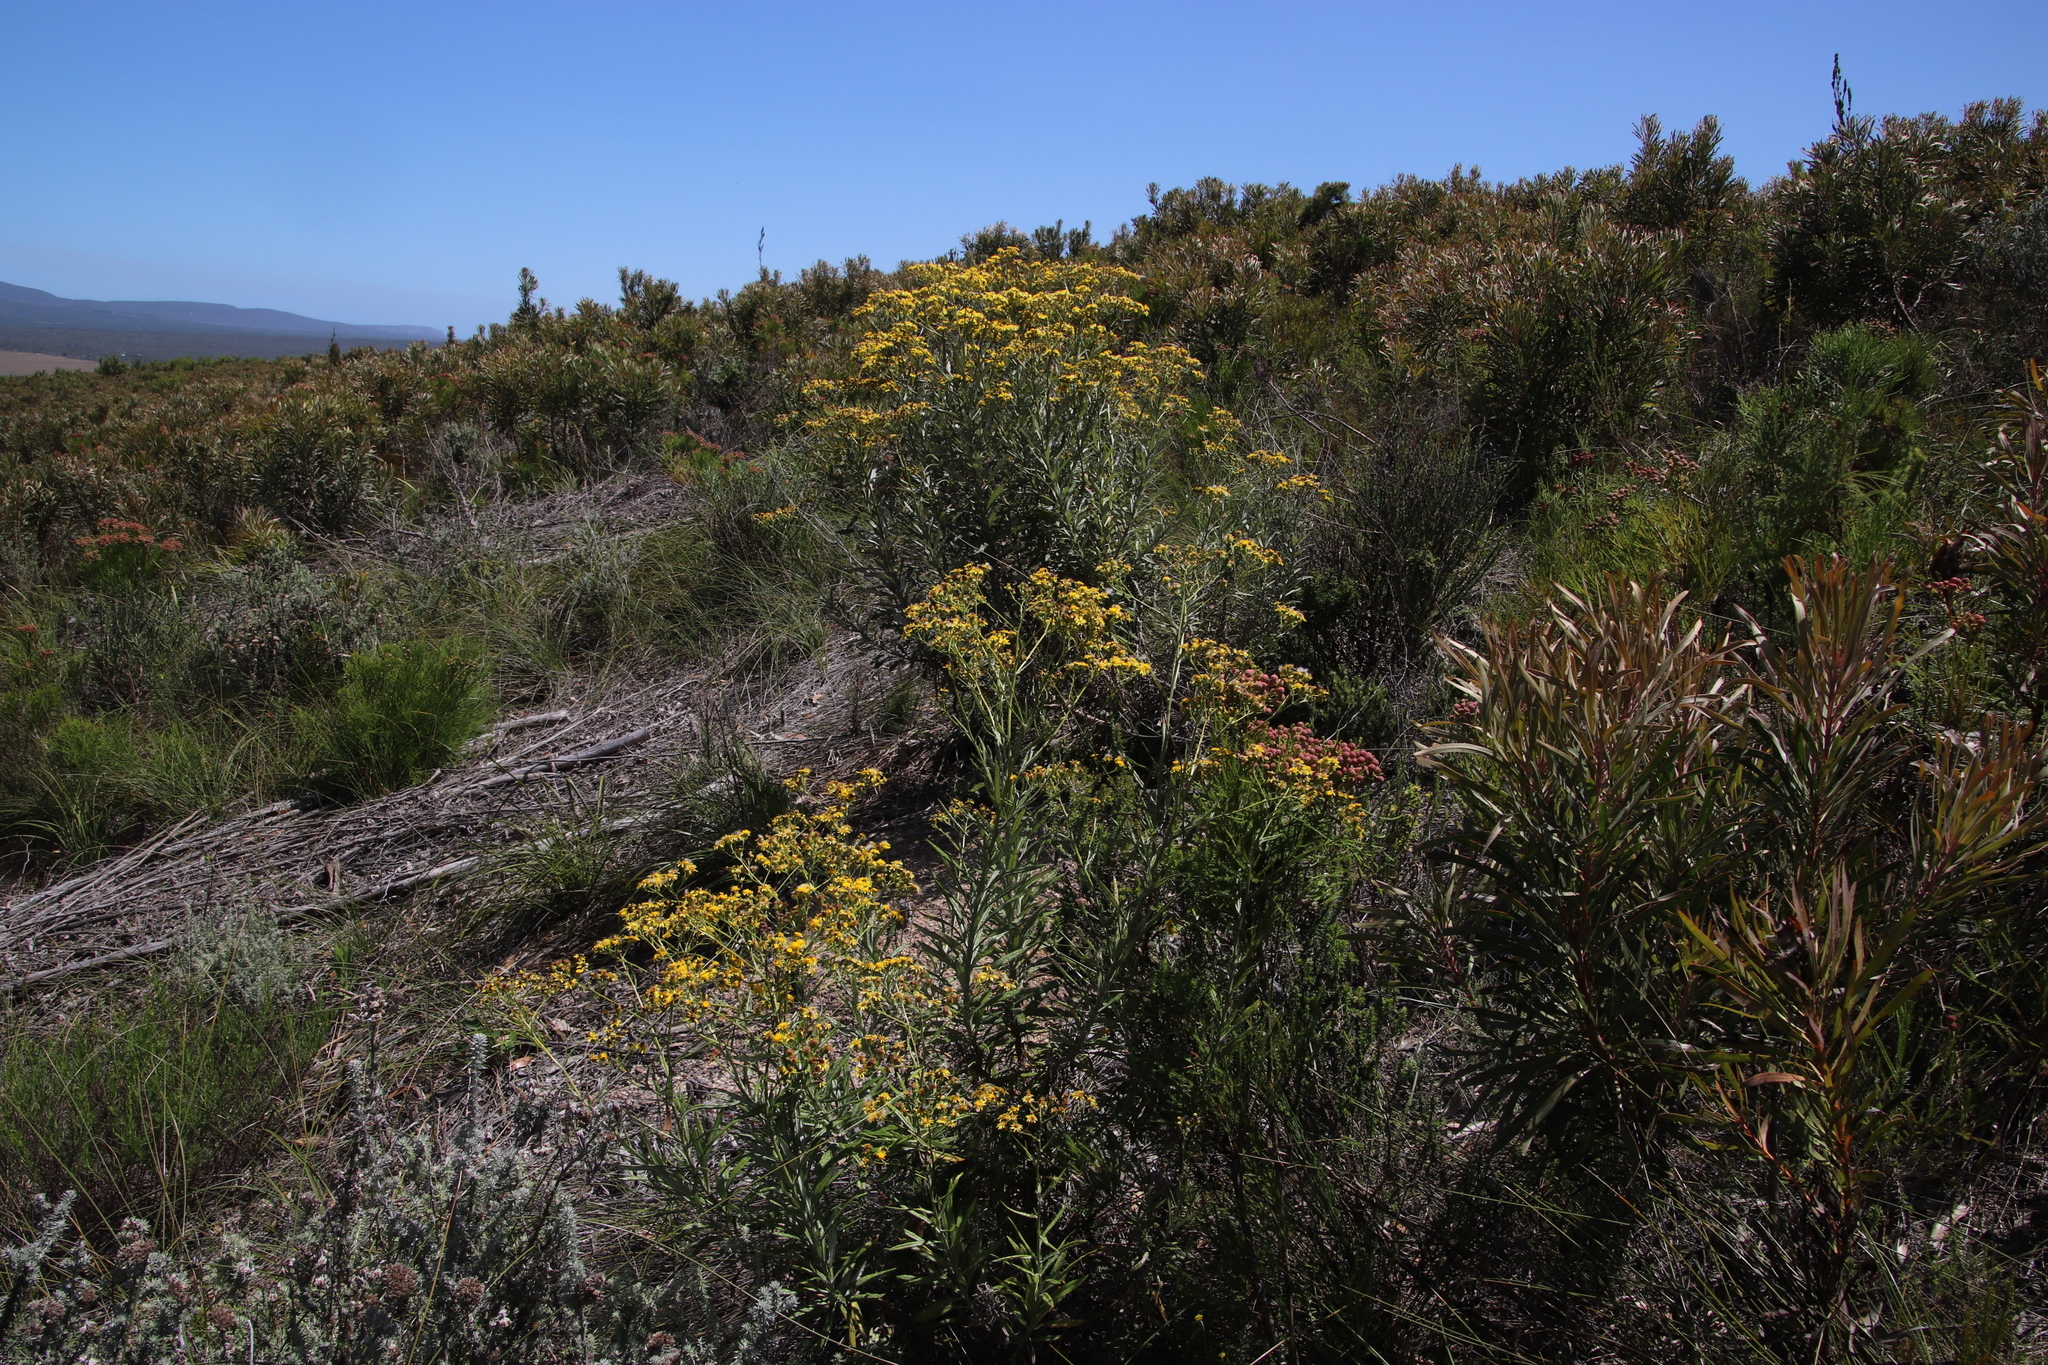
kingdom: Plantae
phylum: Tracheophyta
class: Magnoliopsida
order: Asterales
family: Asteraceae
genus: Senecio
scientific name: Senecio pterophorus
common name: Shoddy ragwort
